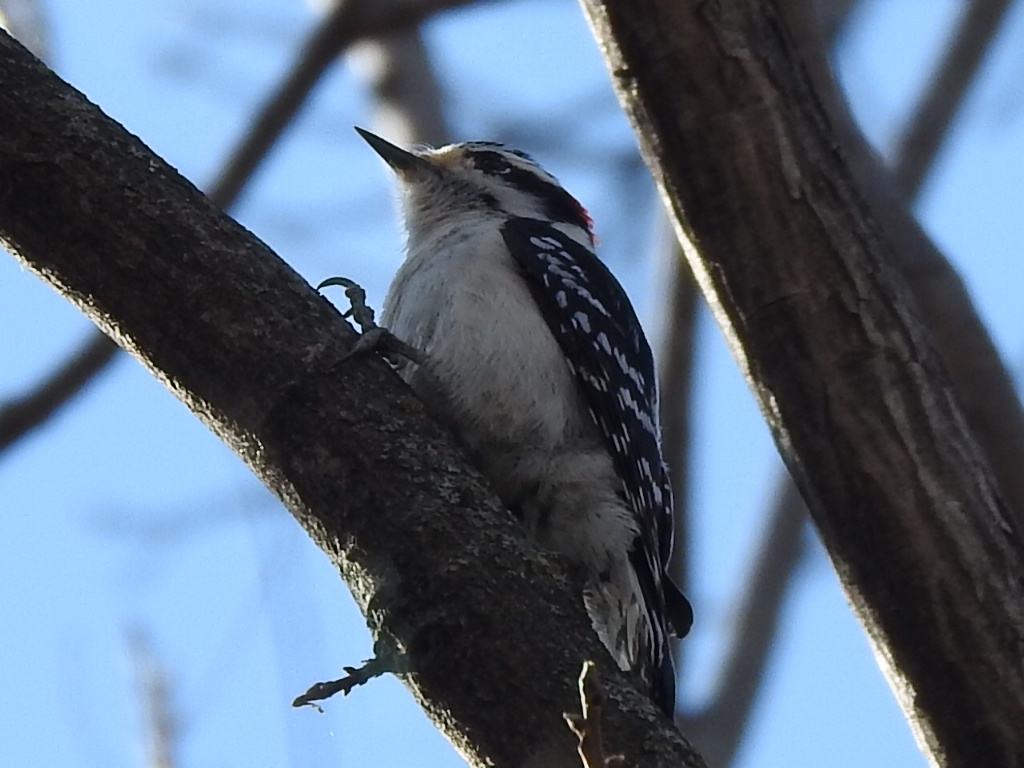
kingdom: Animalia
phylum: Chordata
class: Aves
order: Piciformes
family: Picidae
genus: Dryobates
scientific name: Dryobates pubescens
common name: Downy woodpecker
